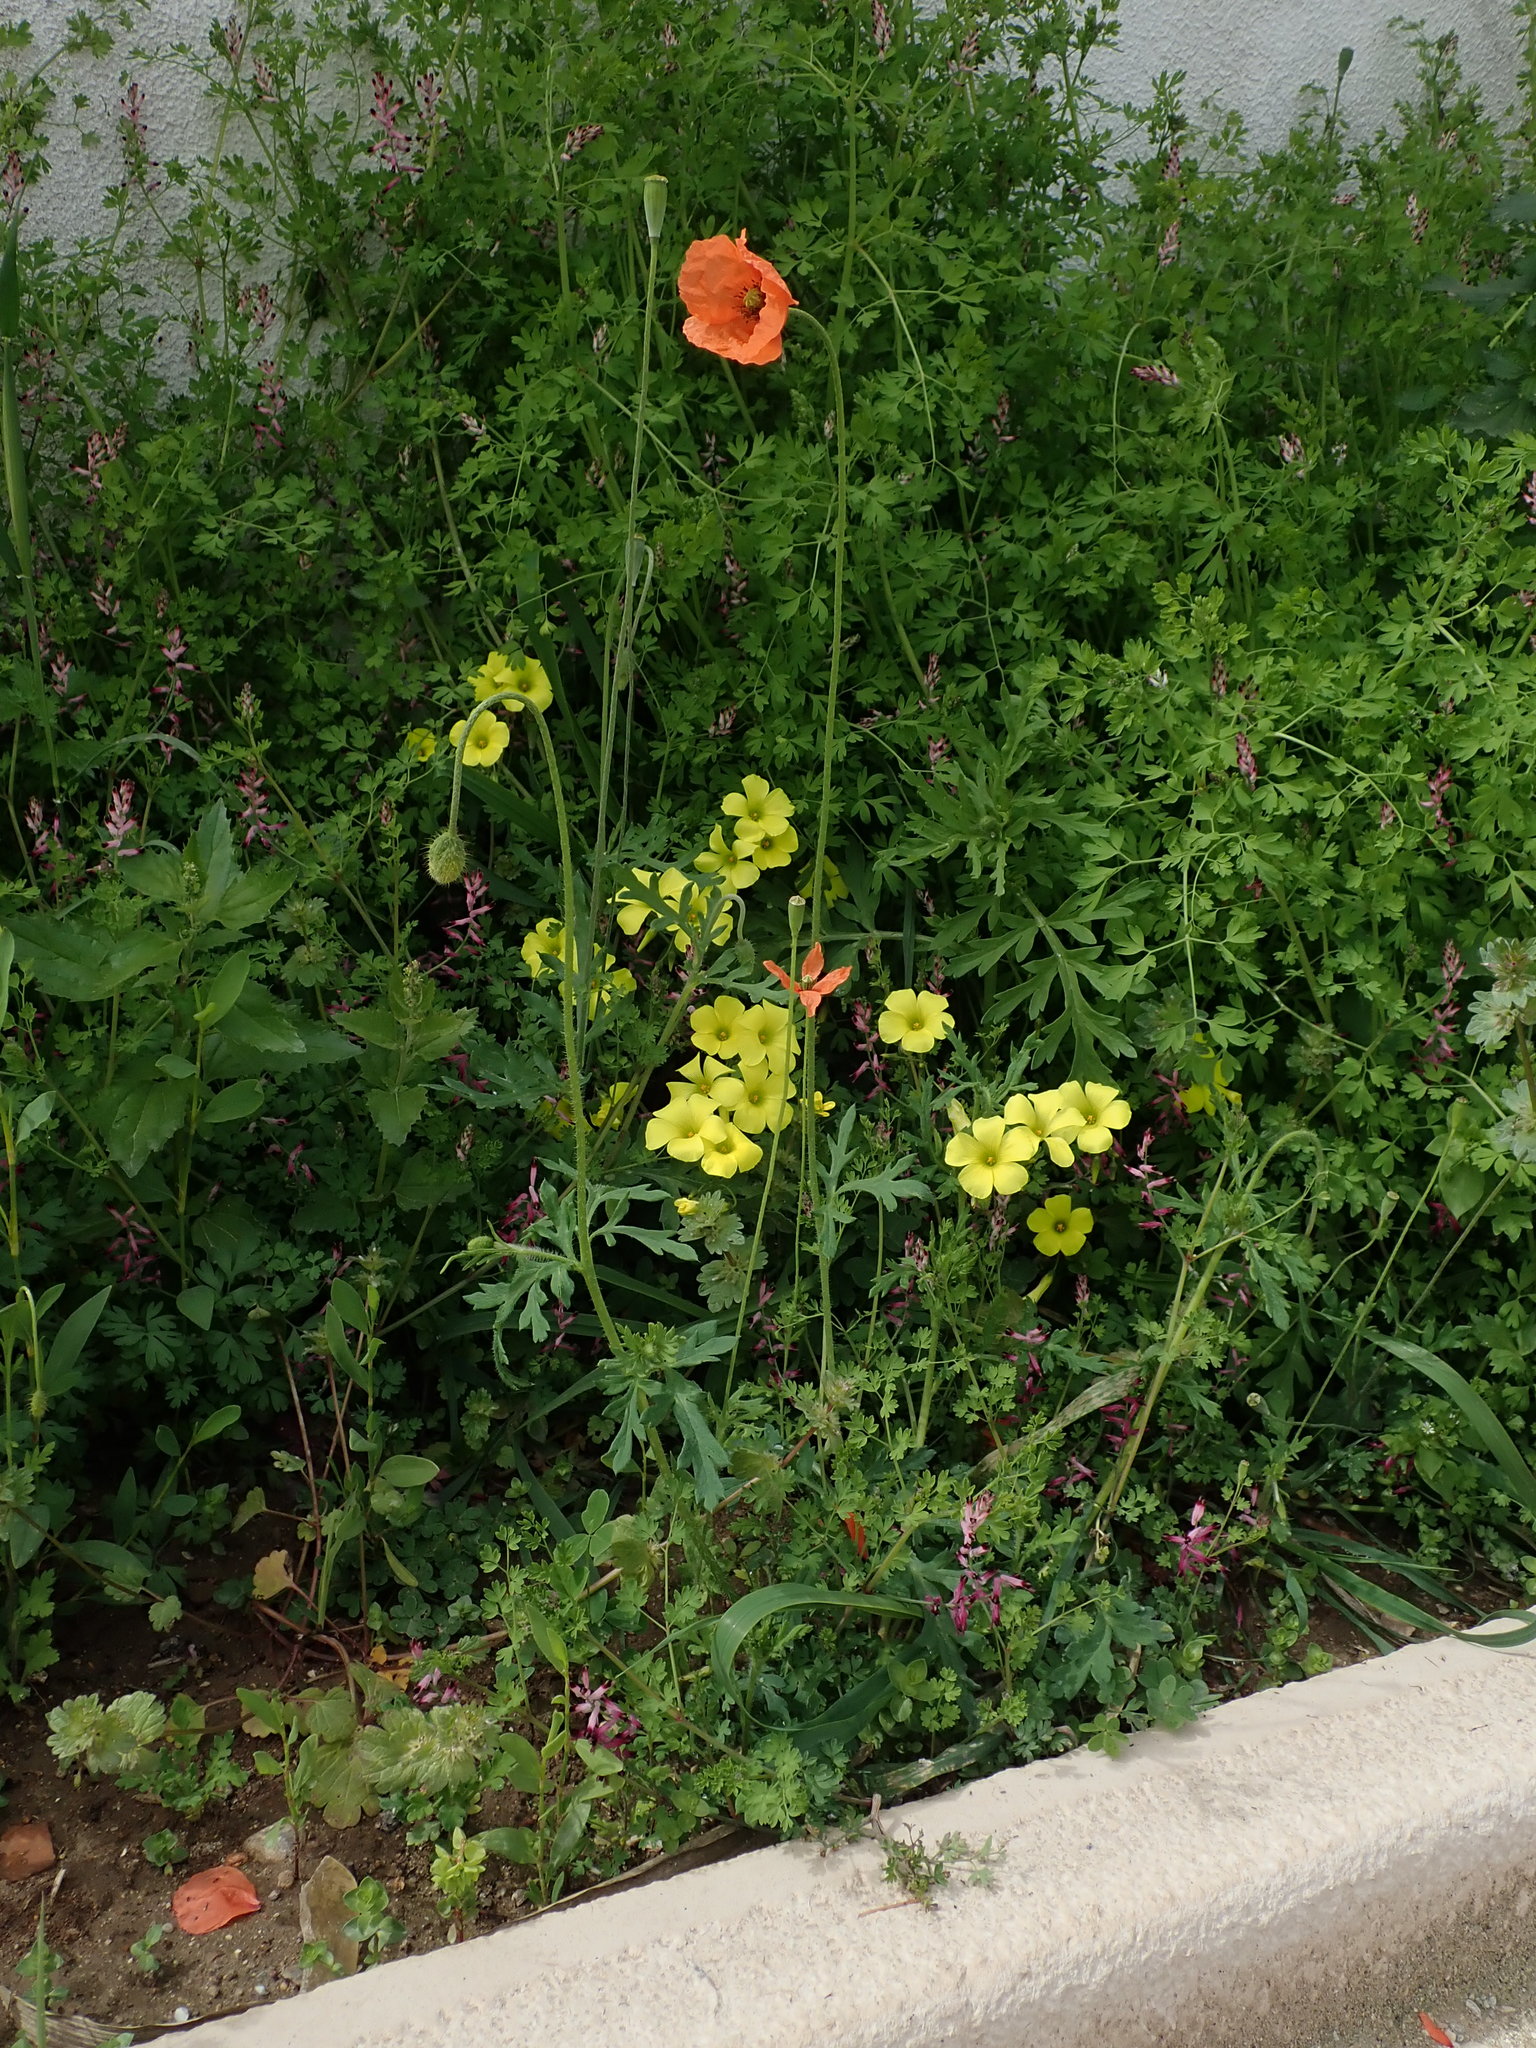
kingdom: Plantae
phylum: Tracheophyta
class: Magnoliopsida
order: Ranunculales
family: Papaveraceae
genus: Papaver
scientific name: Papaver dubium
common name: Long-headed poppy
